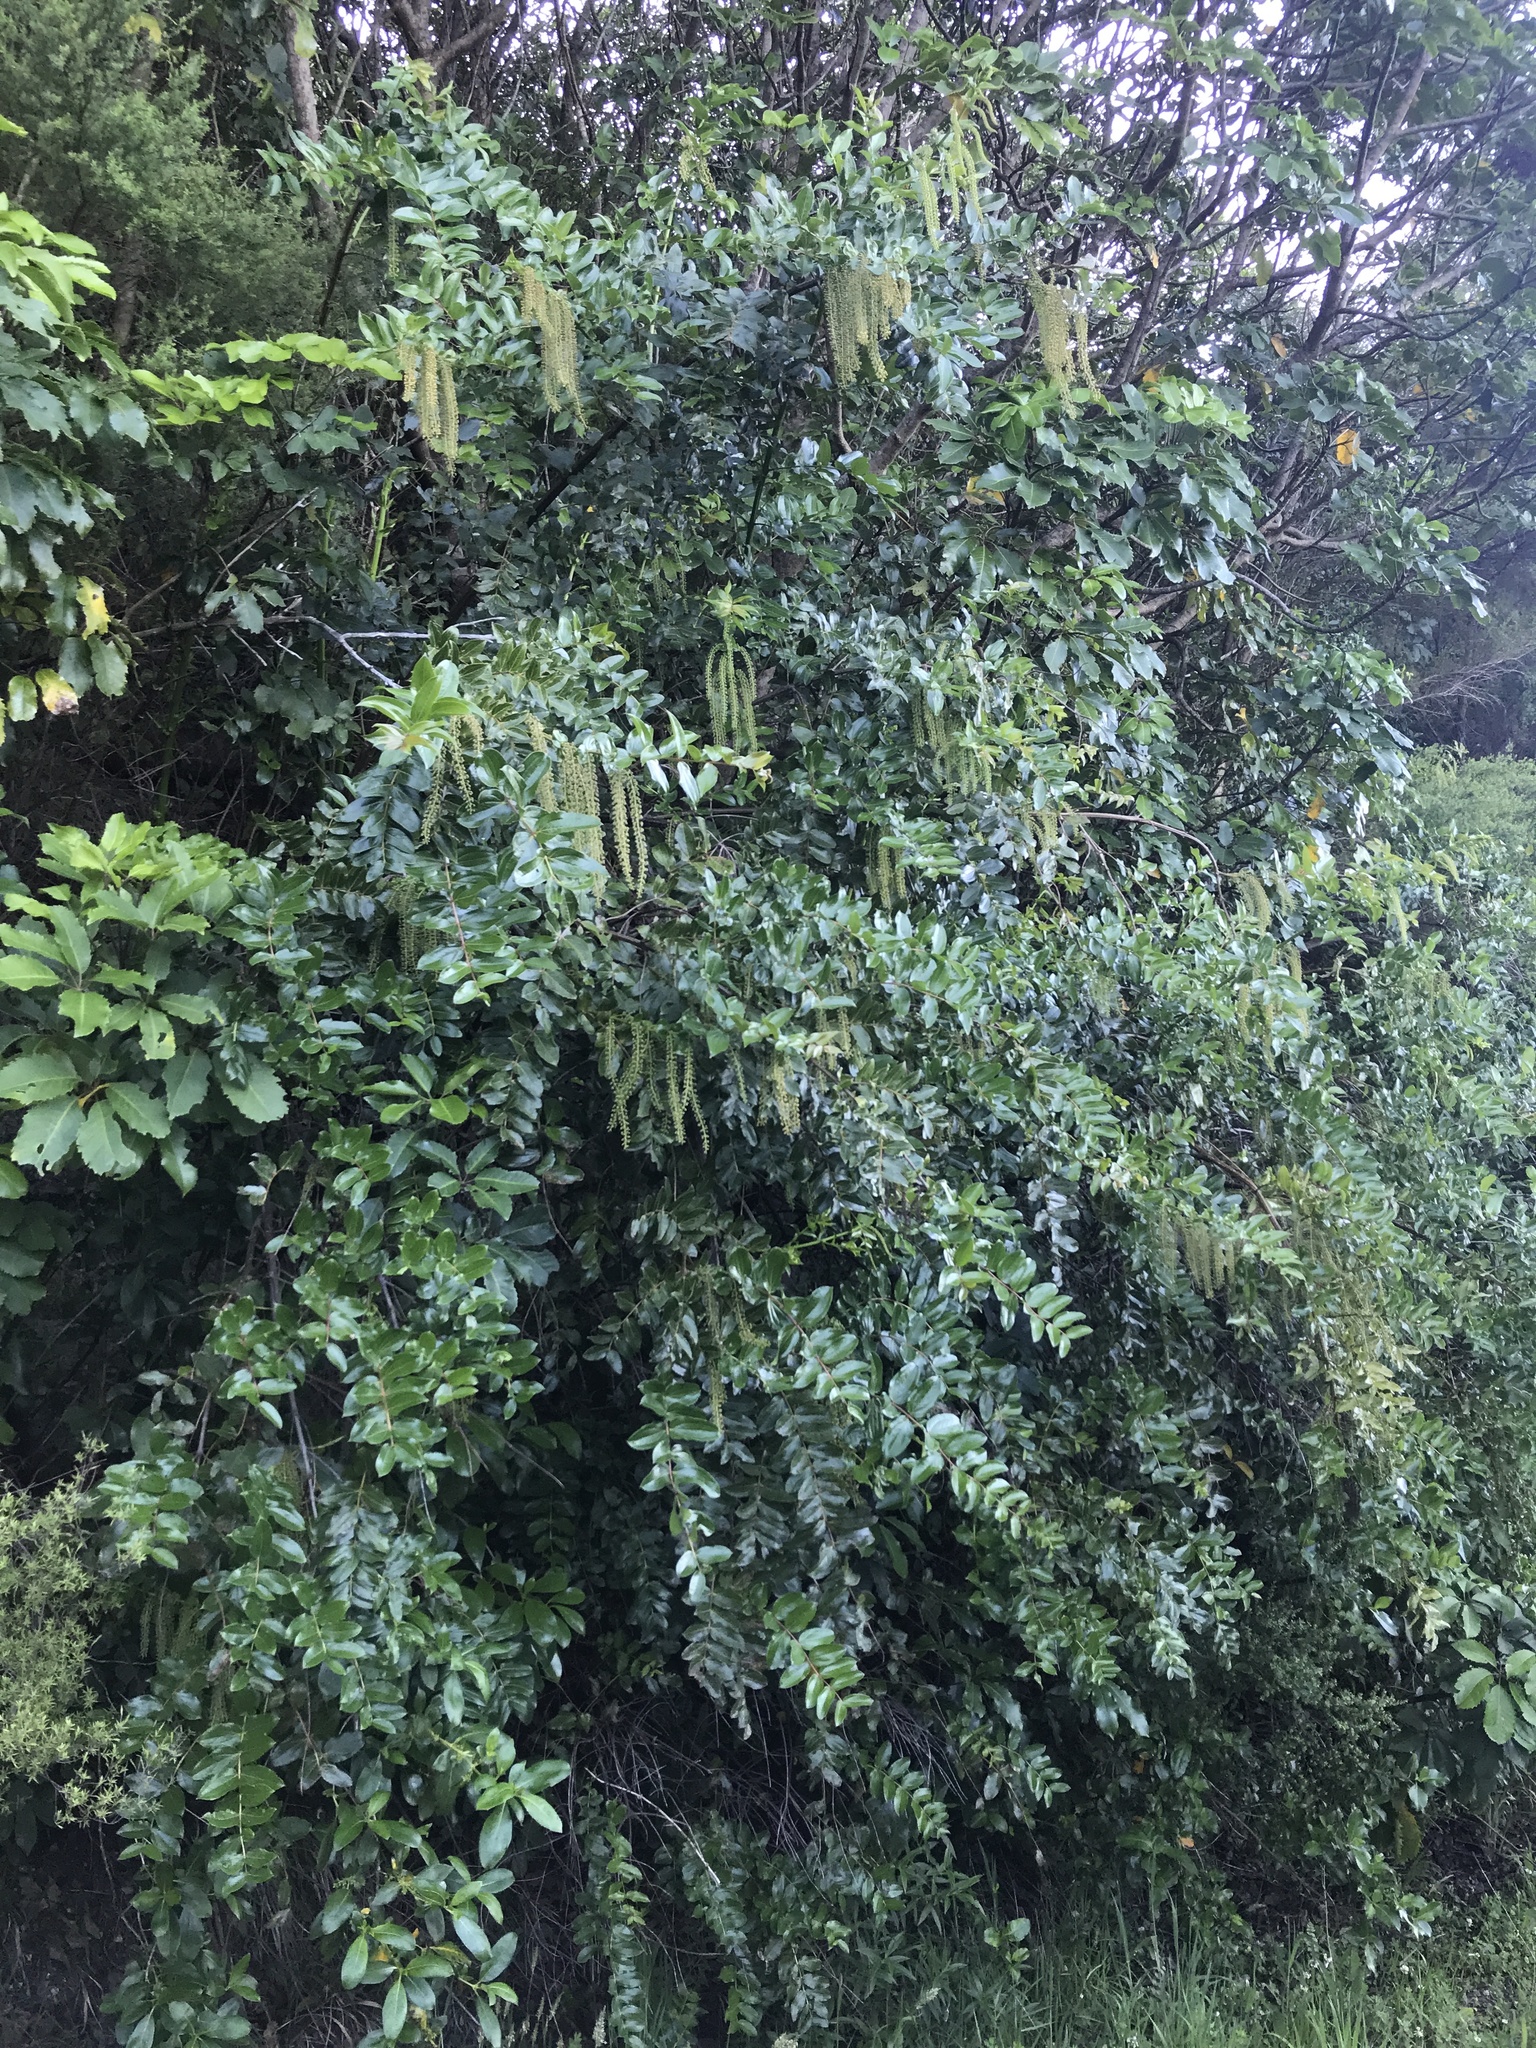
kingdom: Plantae
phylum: Tracheophyta
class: Magnoliopsida
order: Cucurbitales
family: Coriariaceae
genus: Coriaria
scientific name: Coriaria arborea
